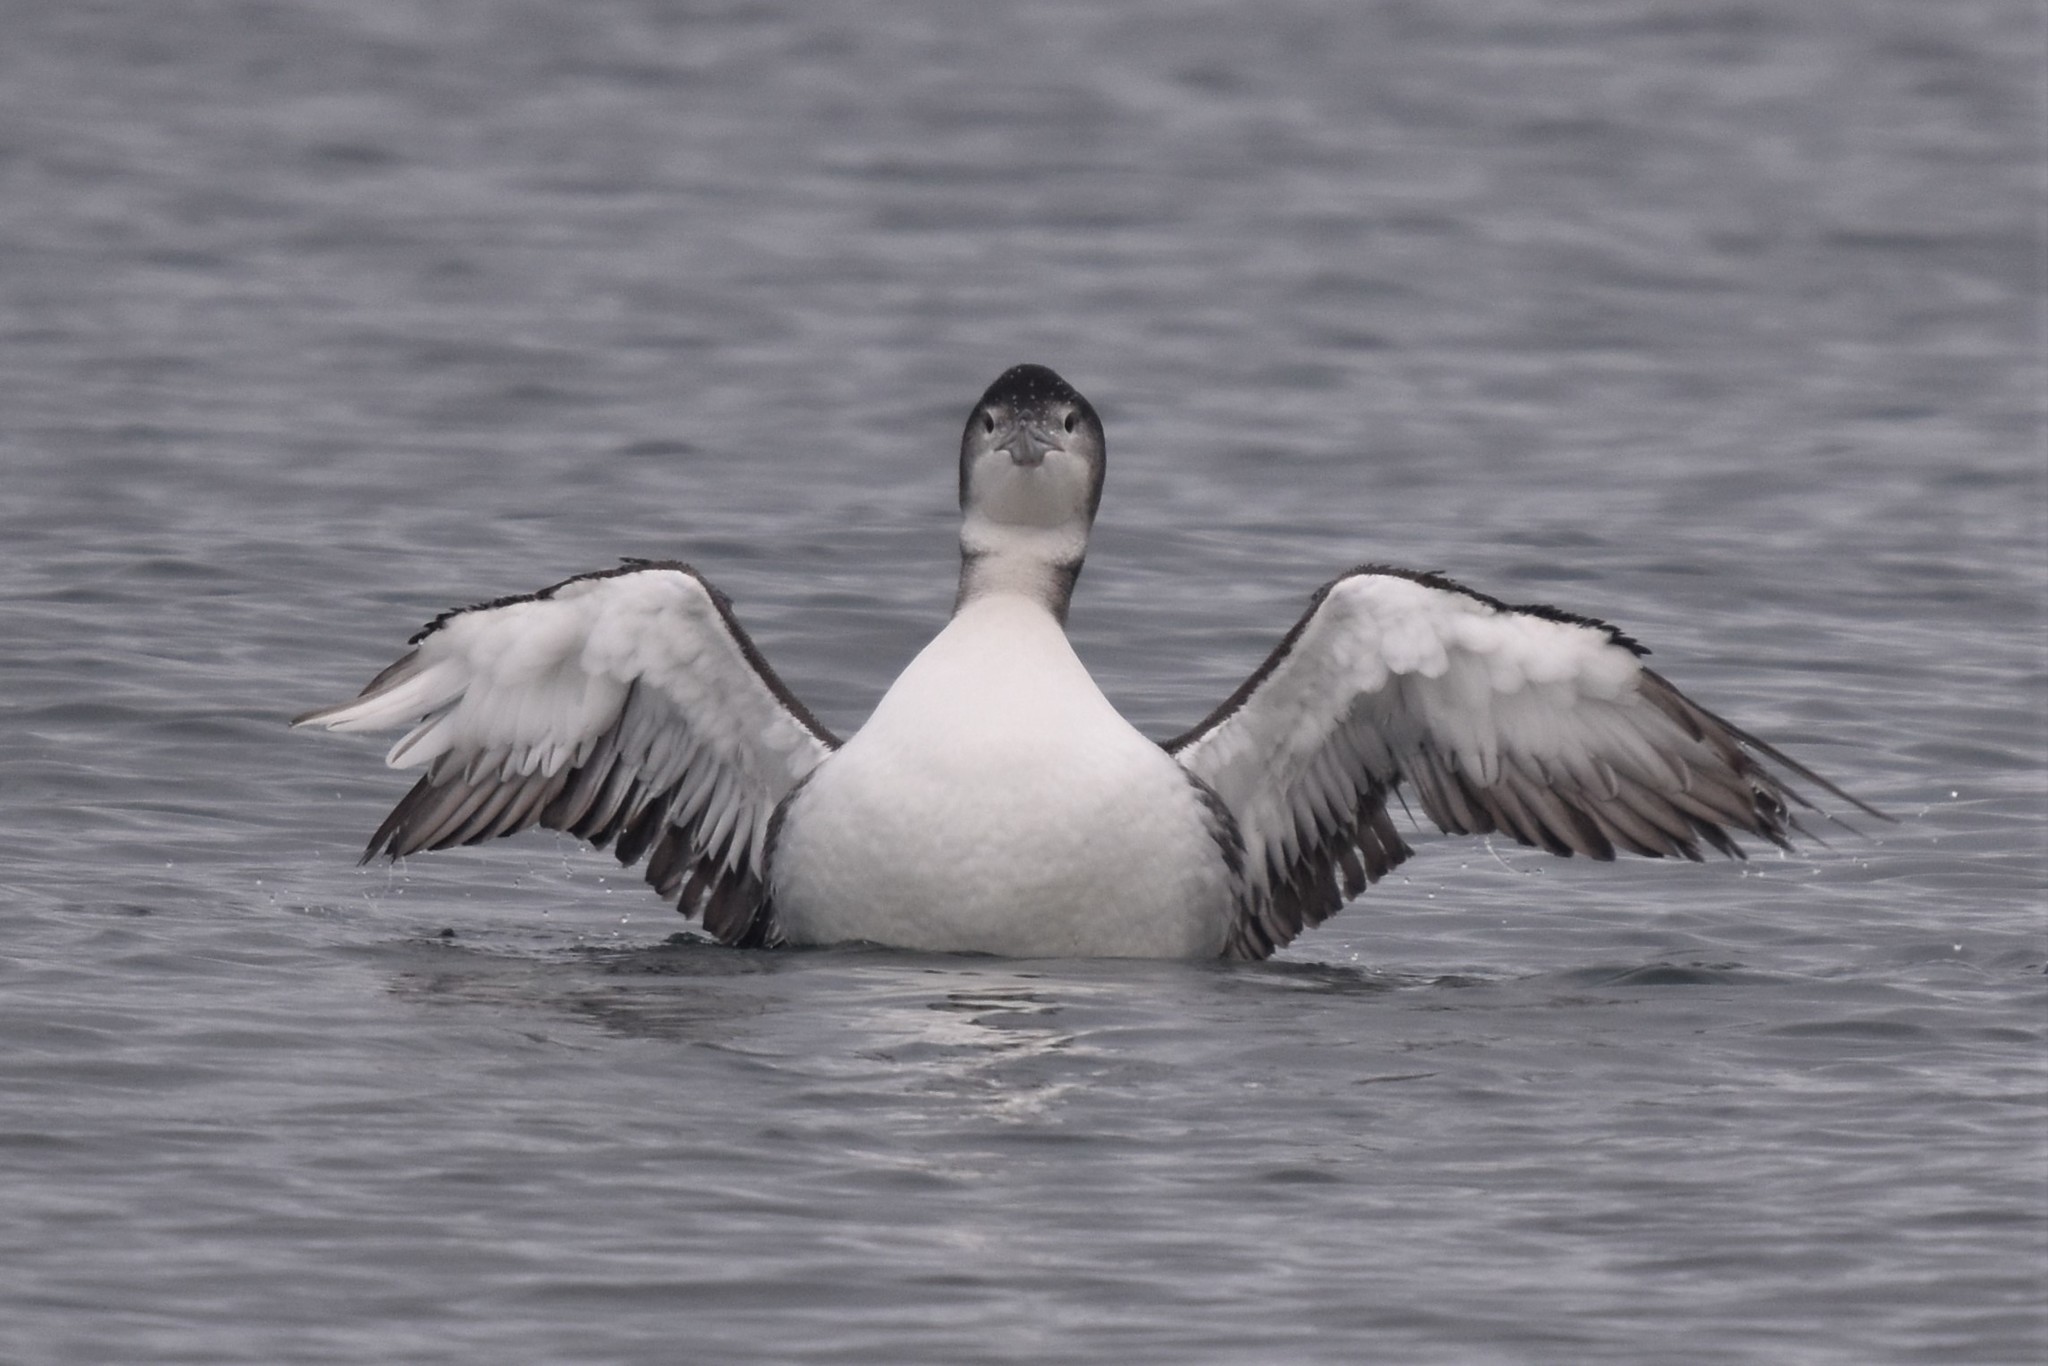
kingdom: Animalia
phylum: Chordata
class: Aves
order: Gaviiformes
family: Gaviidae
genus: Gavia
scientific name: Gavia immer
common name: Common loon
